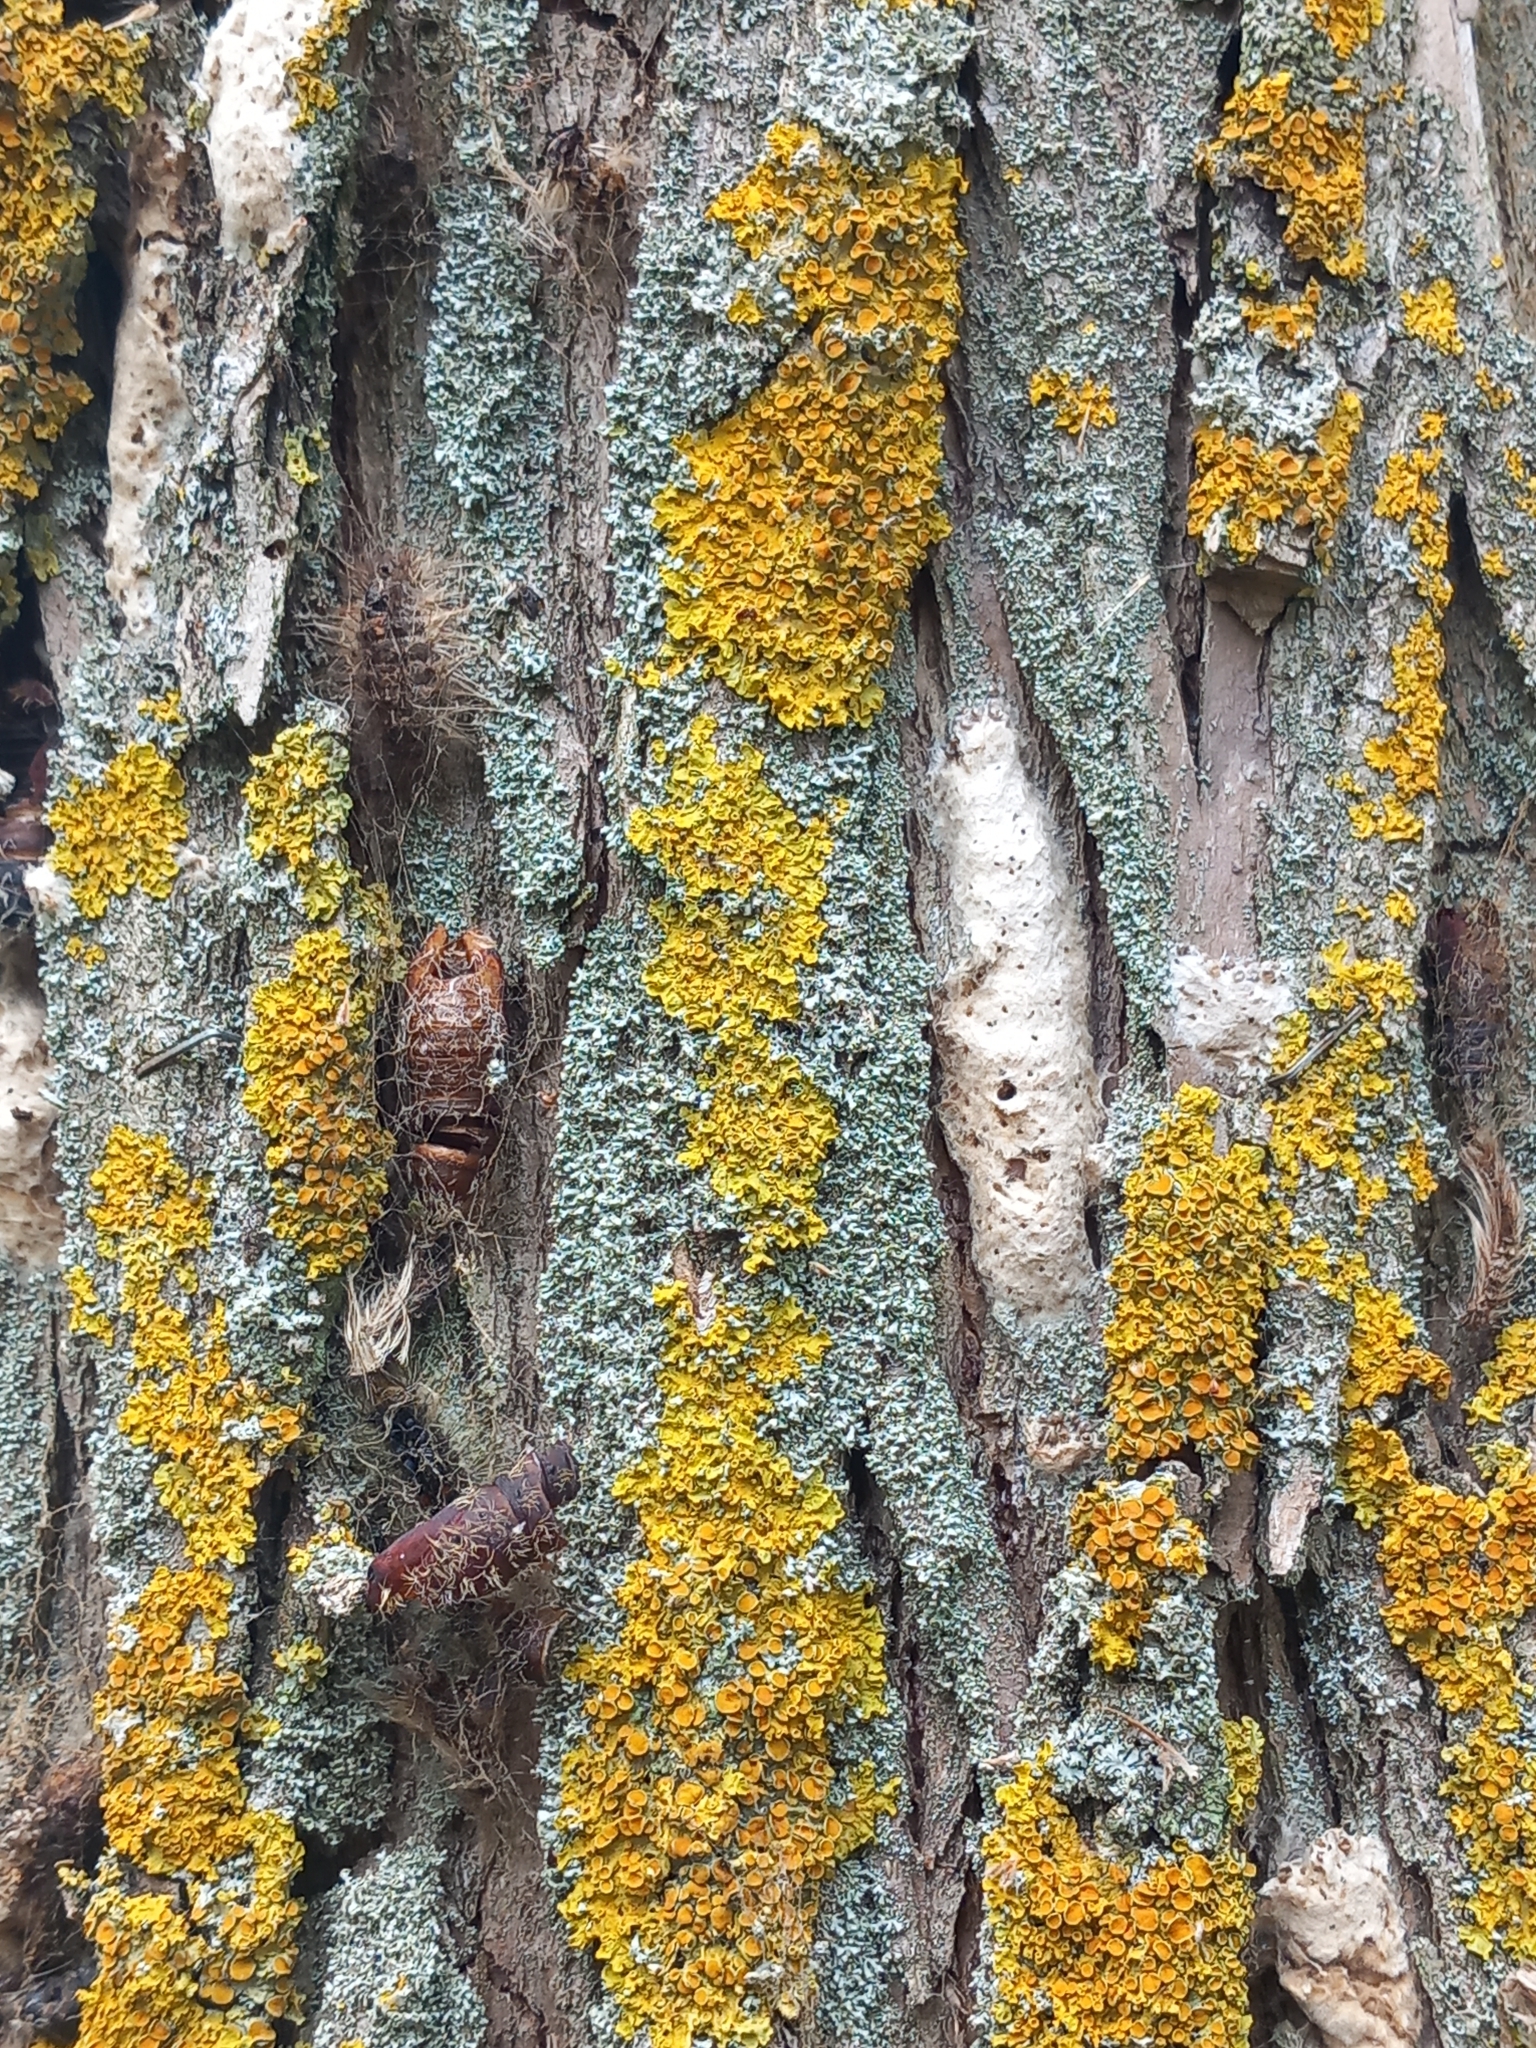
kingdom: Animalia
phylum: Arthropoda
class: Insecta
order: Lepidoptera
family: Erebidae
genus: Lymantria
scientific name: Lymantria dispar
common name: Gypsy moth
